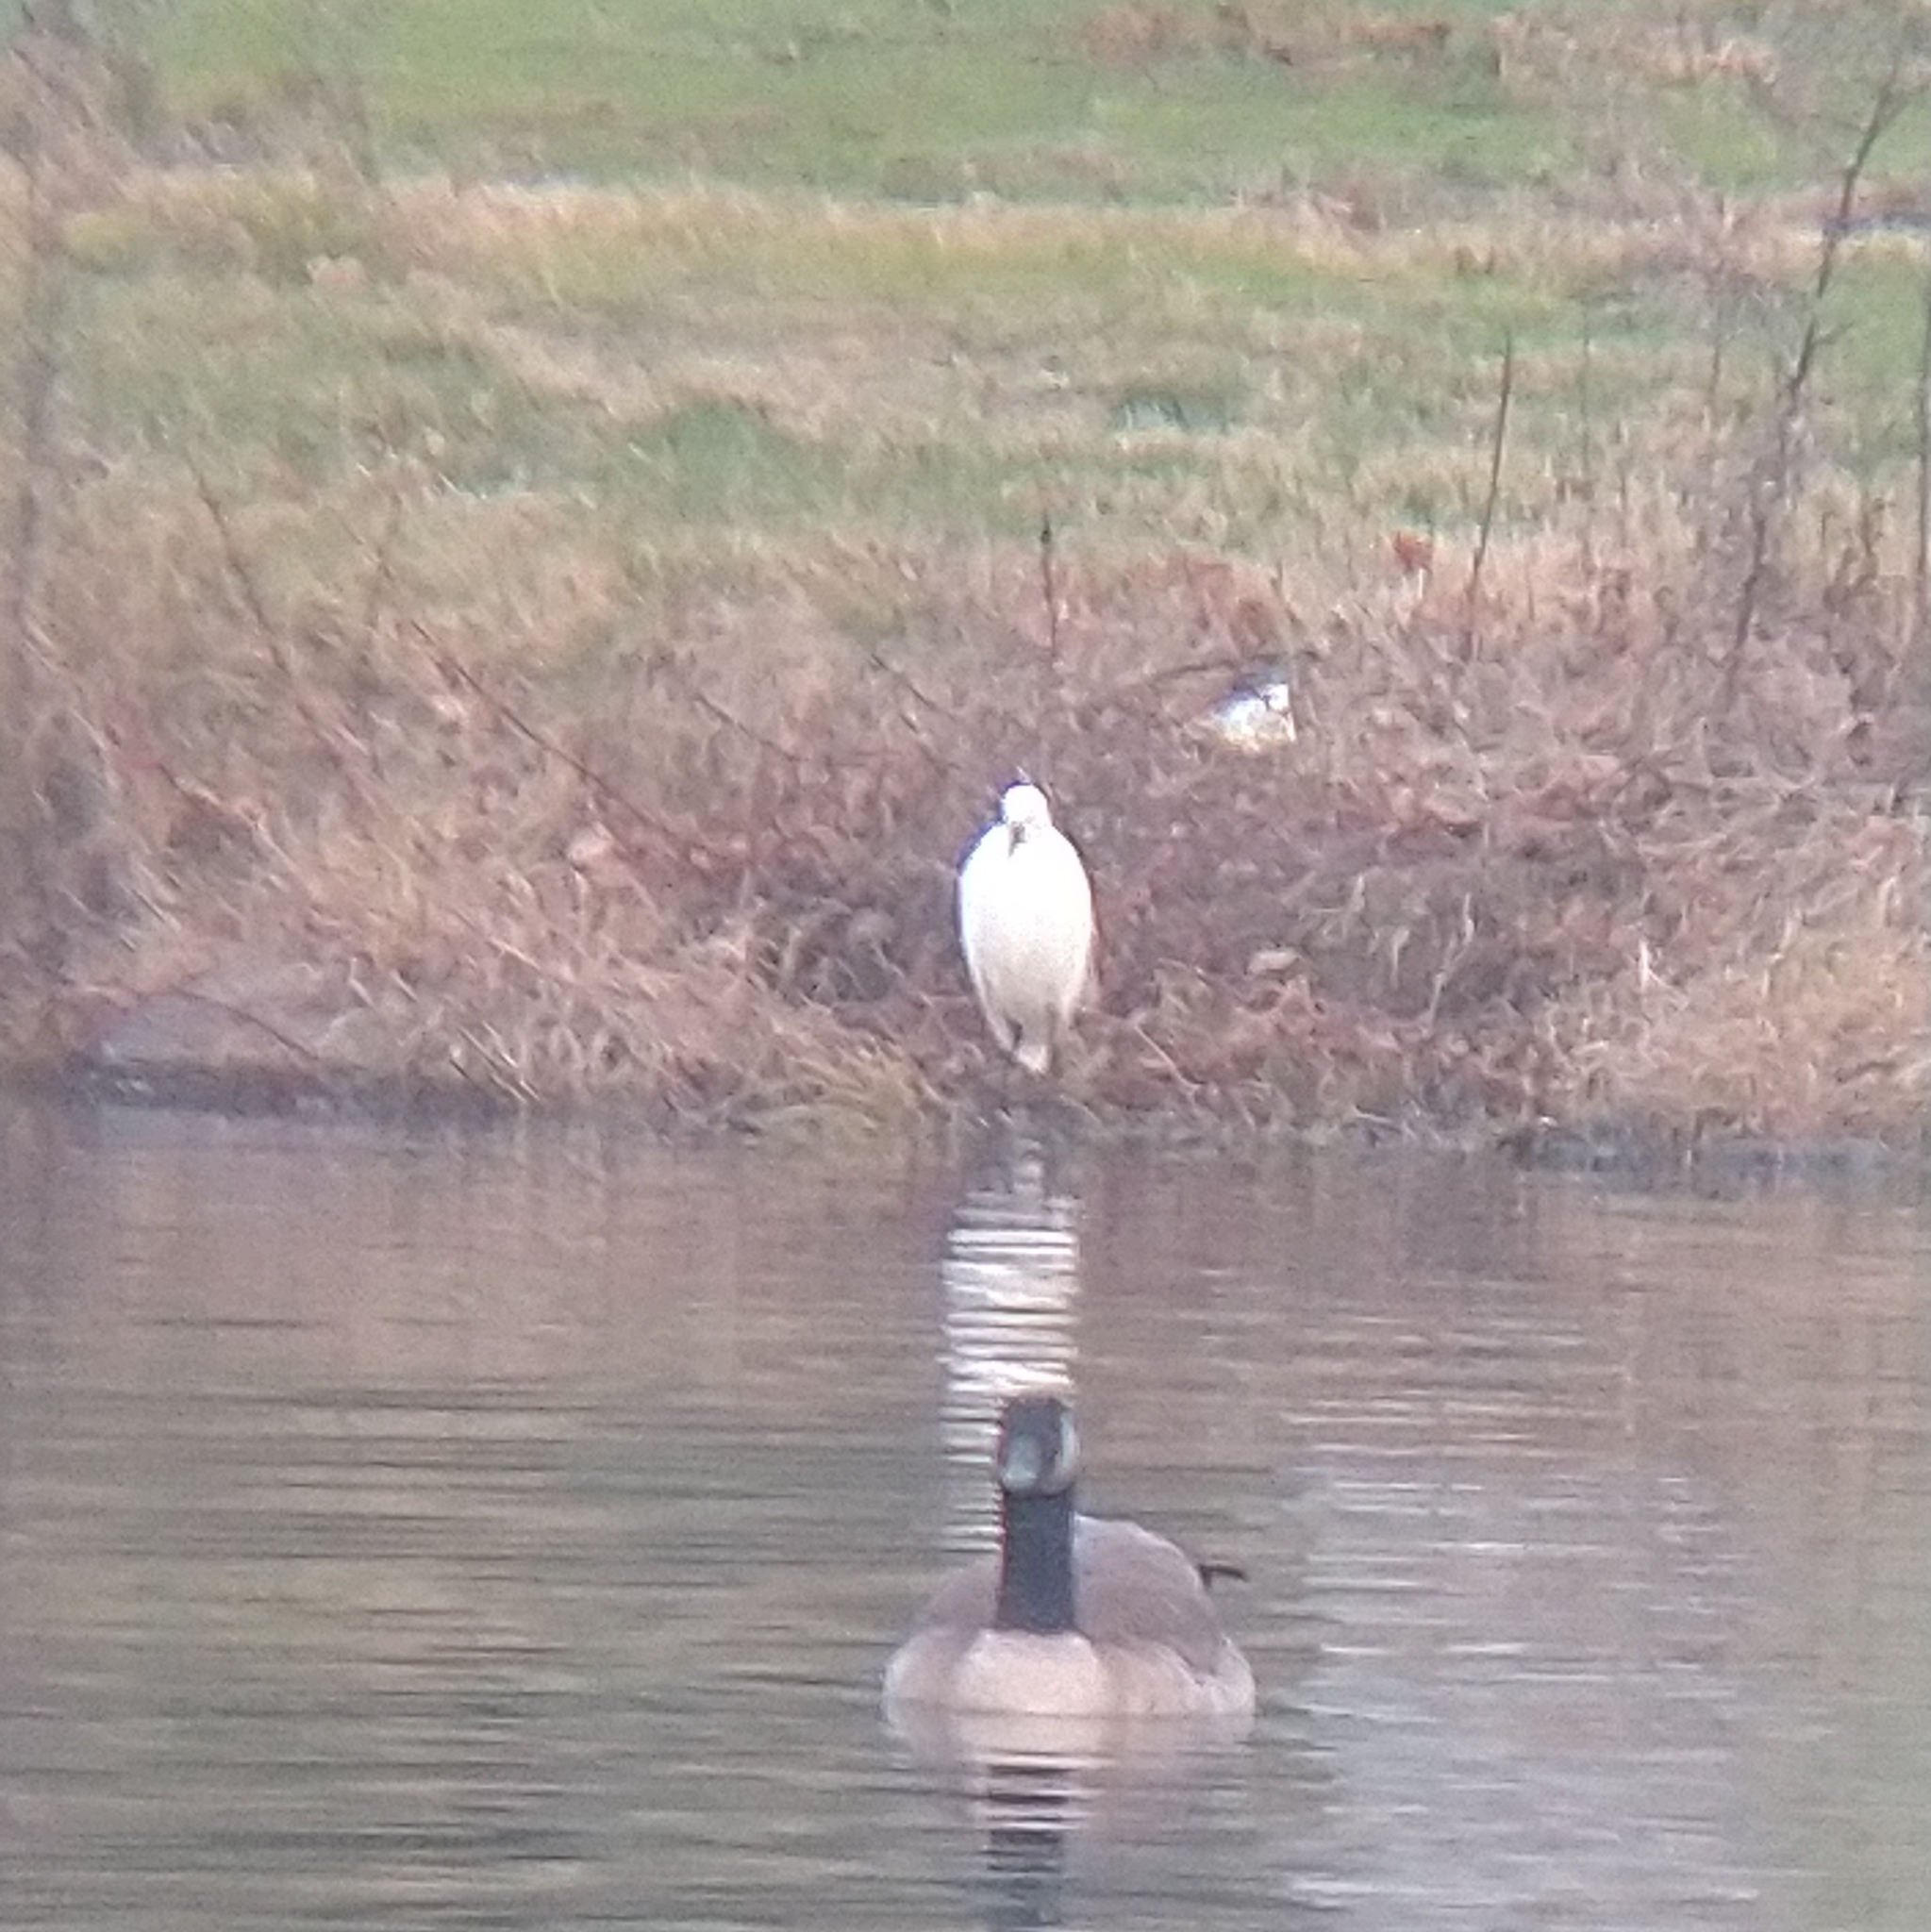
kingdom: Animalia
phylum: Chordata
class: Aves
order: Pelecaniformes
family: Ardeidae
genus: Egretta
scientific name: Egretta thula
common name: Snowy egret
